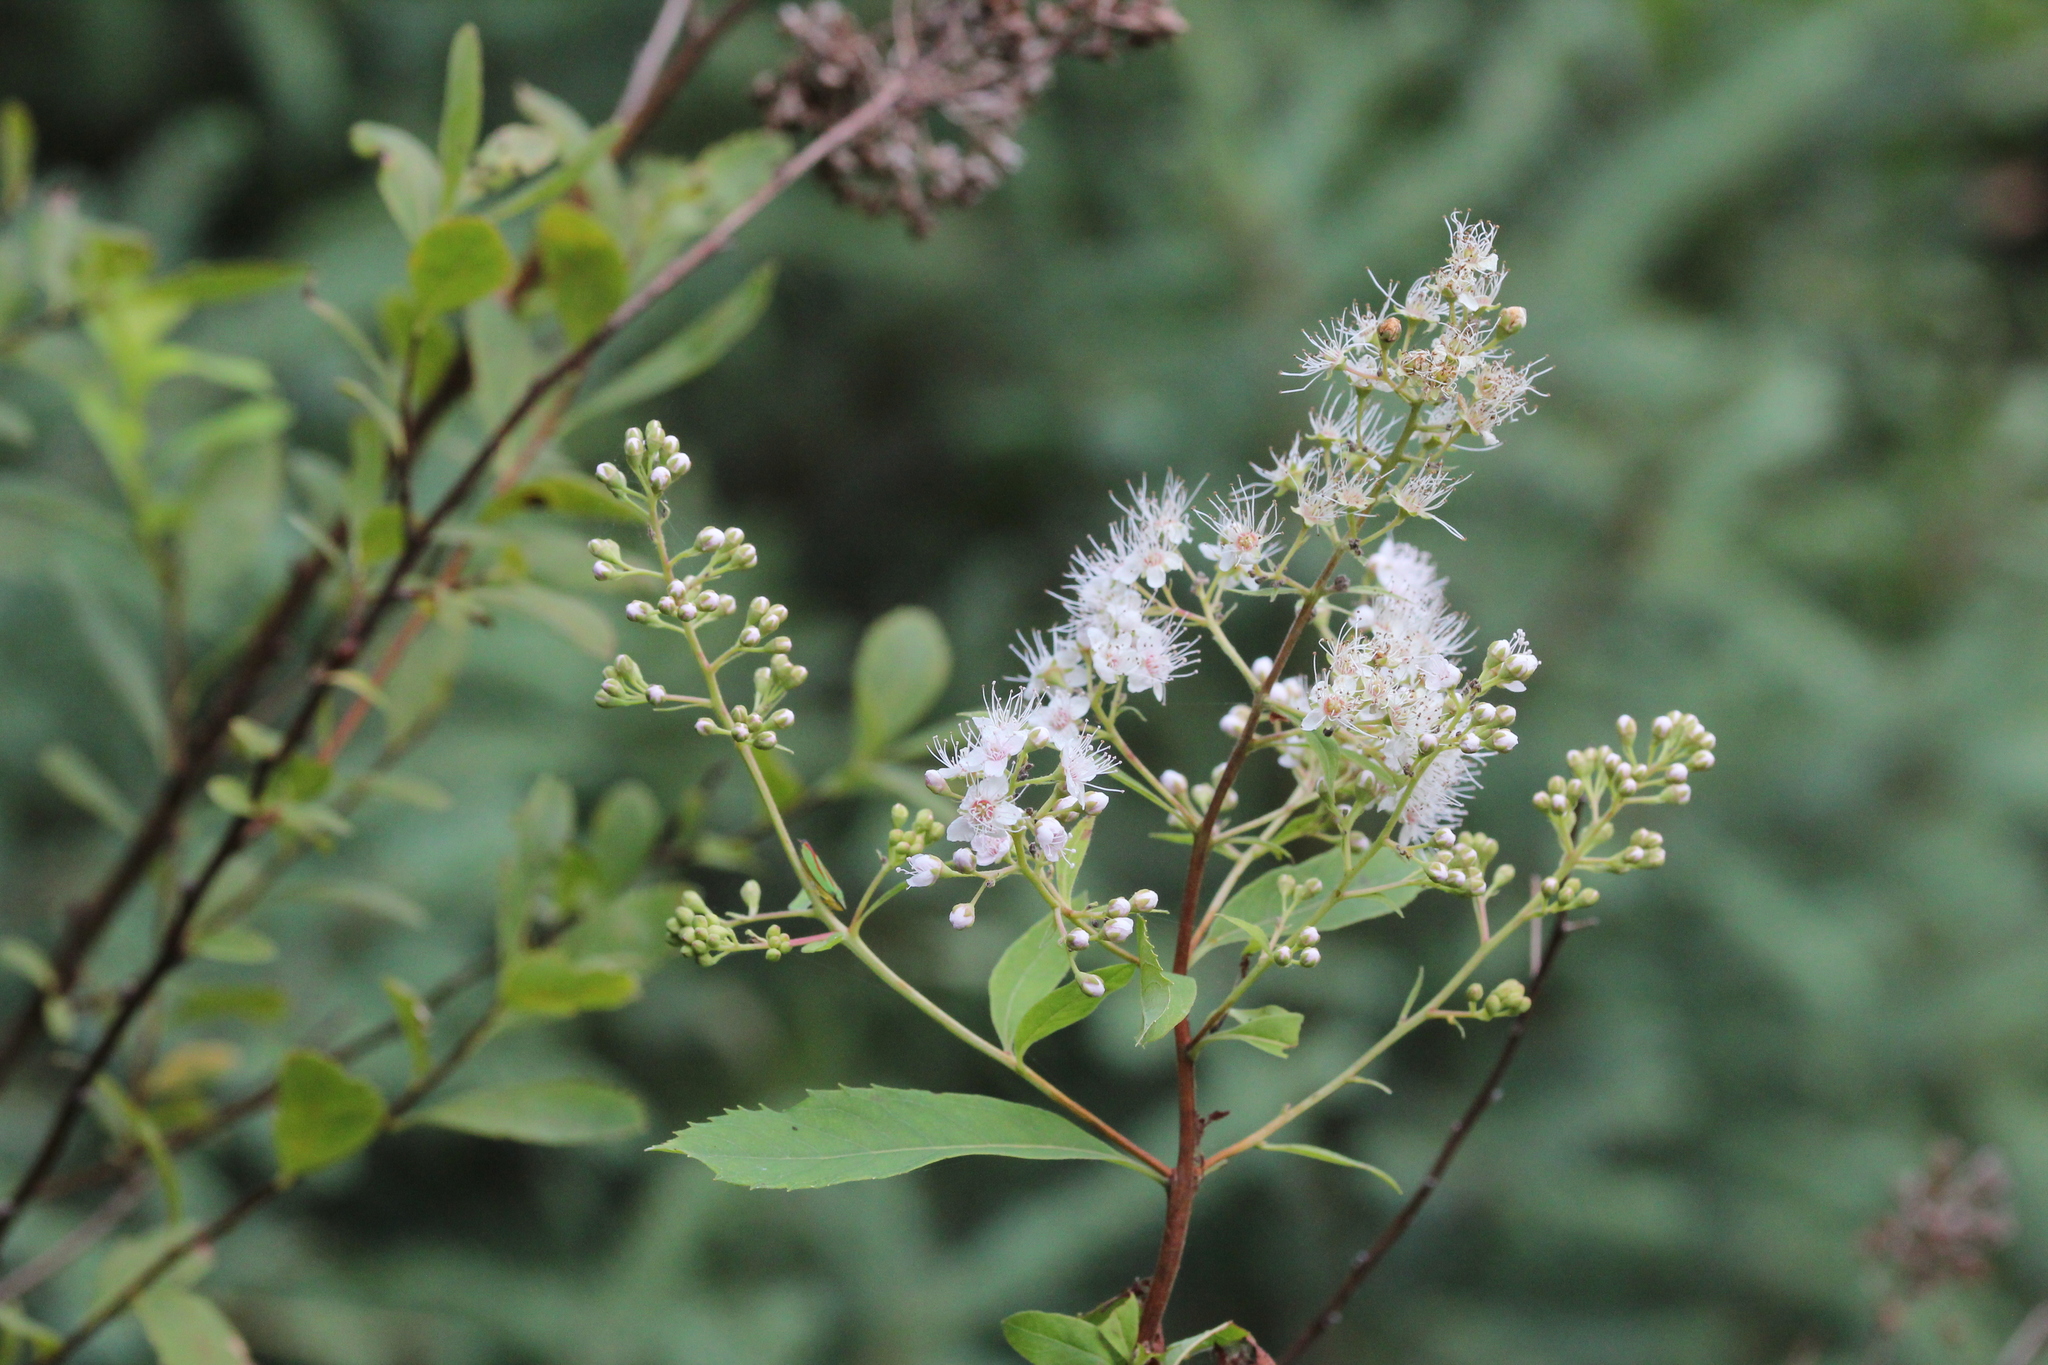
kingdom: Plantae
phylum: Tracheophyta
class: Magnoliopsida
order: Rosales
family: Rosaceae
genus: Spiraea
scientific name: Spiraea alba
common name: Pale bridewort
